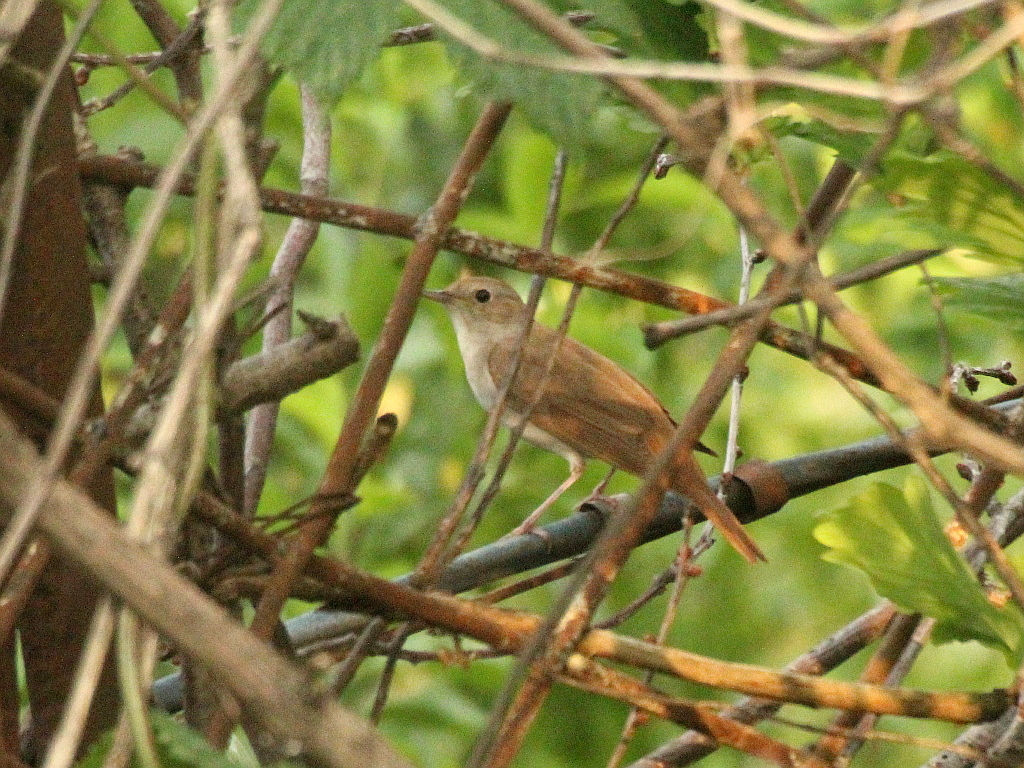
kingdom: Animalia
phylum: Chordata
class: Aves
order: Passeriformes
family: Muscicapidae
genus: Luscinia
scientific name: Luscinia megarhynchos
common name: Common nightingale
